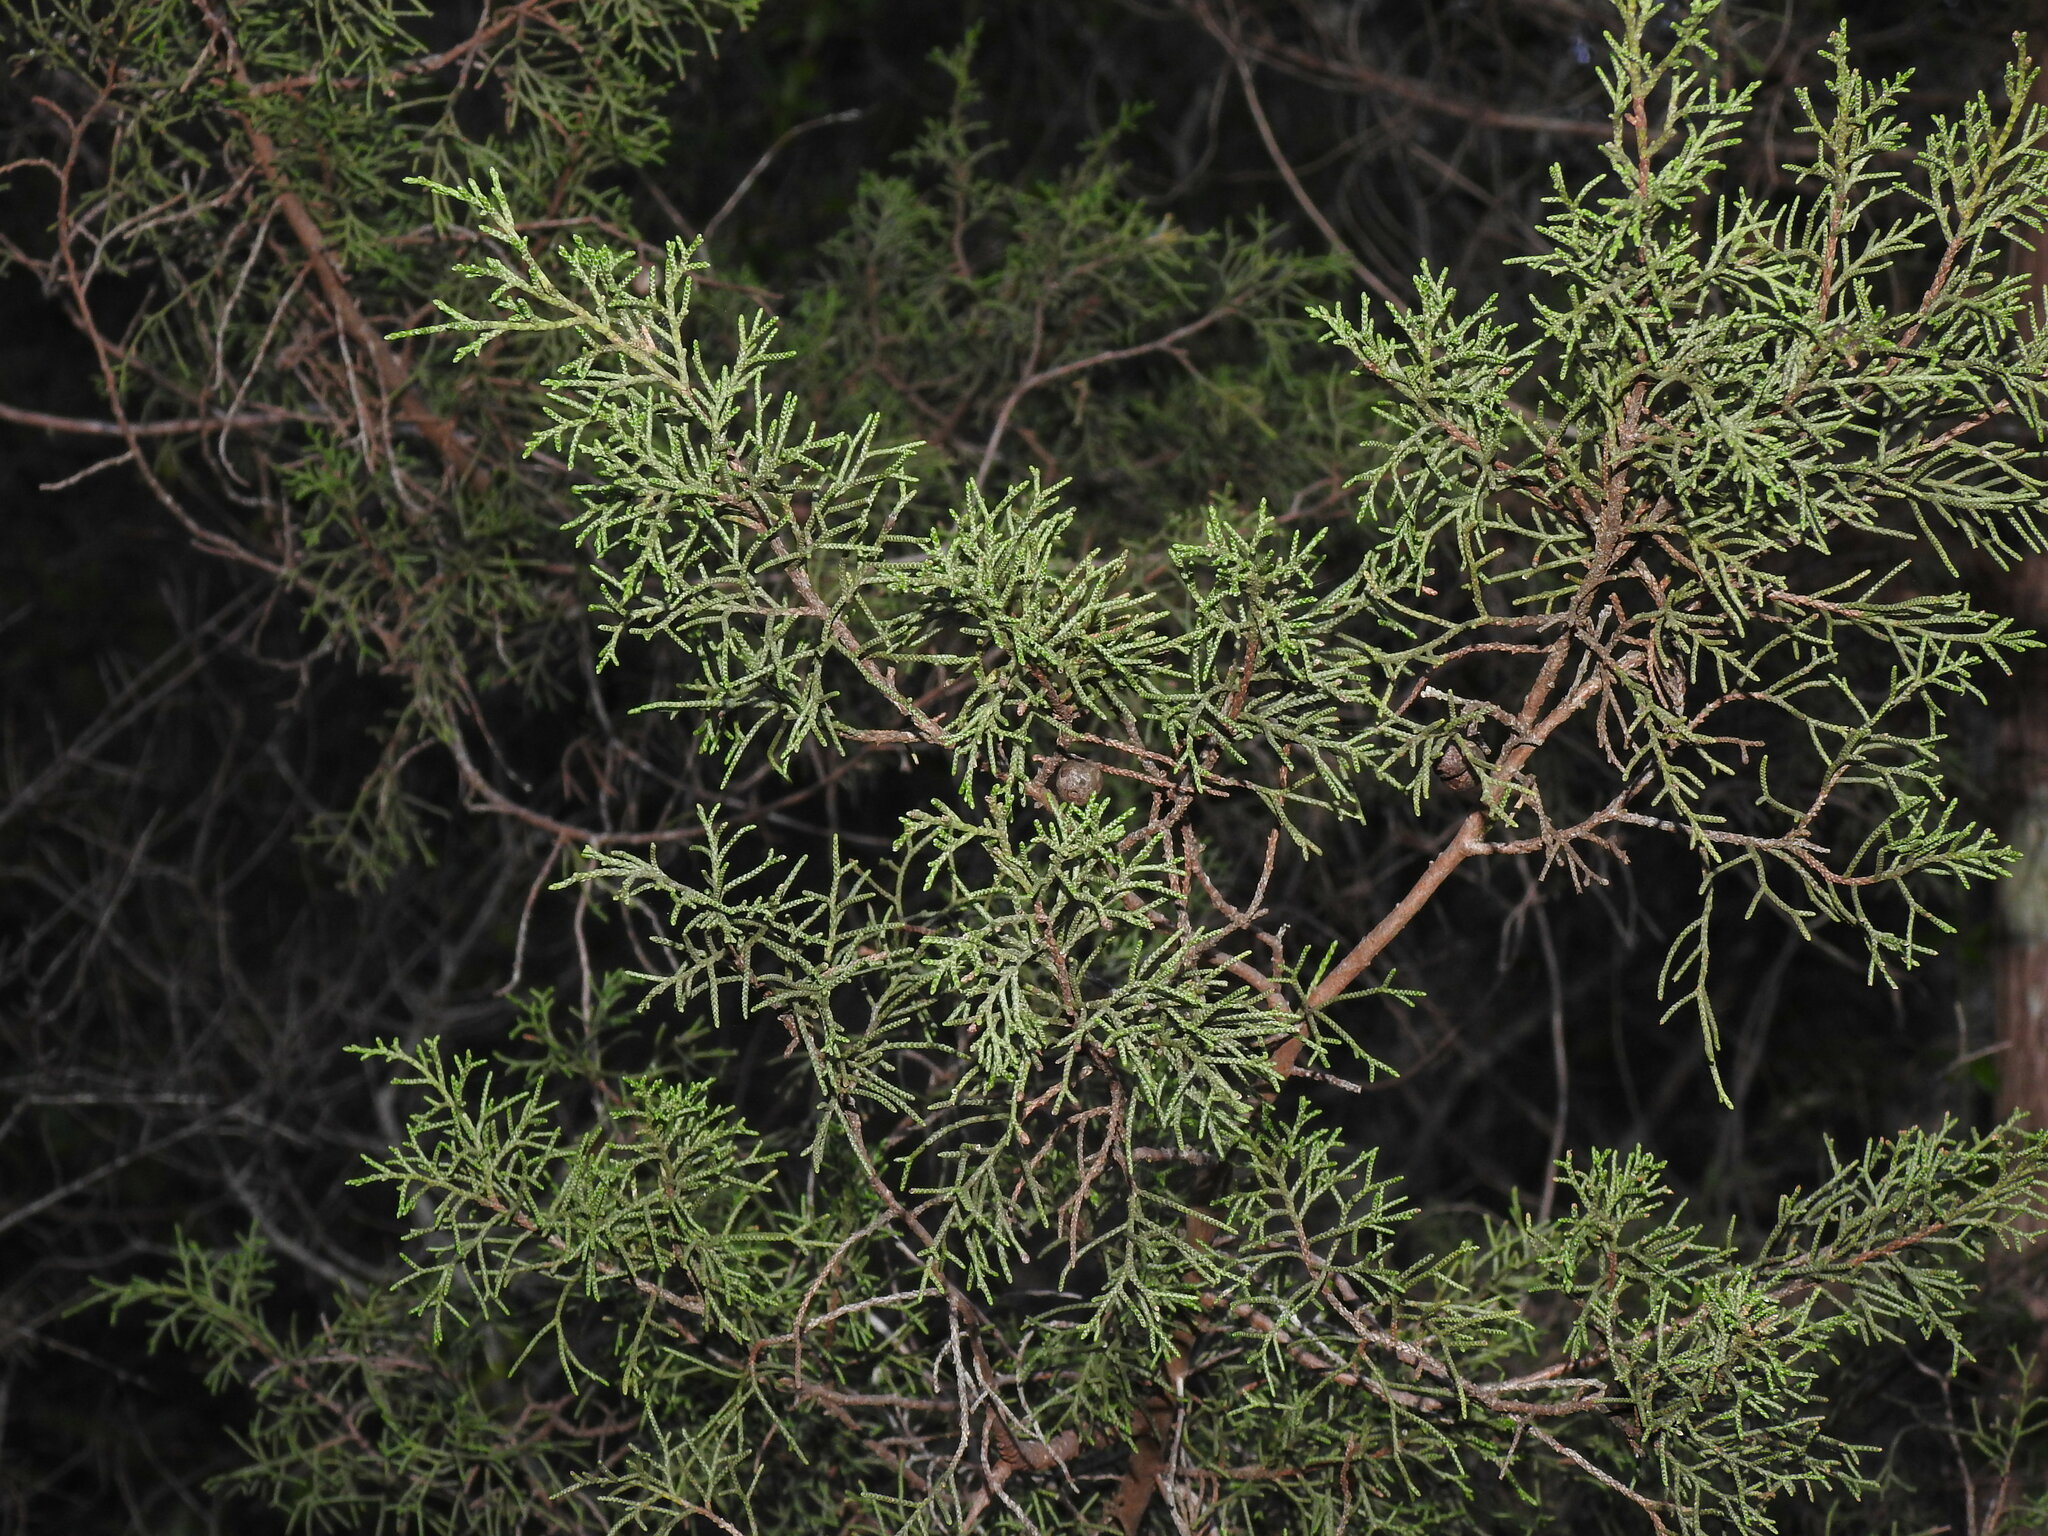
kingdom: Plantae
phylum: Tracheophyta
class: Pinopsida
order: Pinales
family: Cupressaceae
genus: Juniperus
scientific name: Juniperus phoenicea
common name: Phoenician juniper
